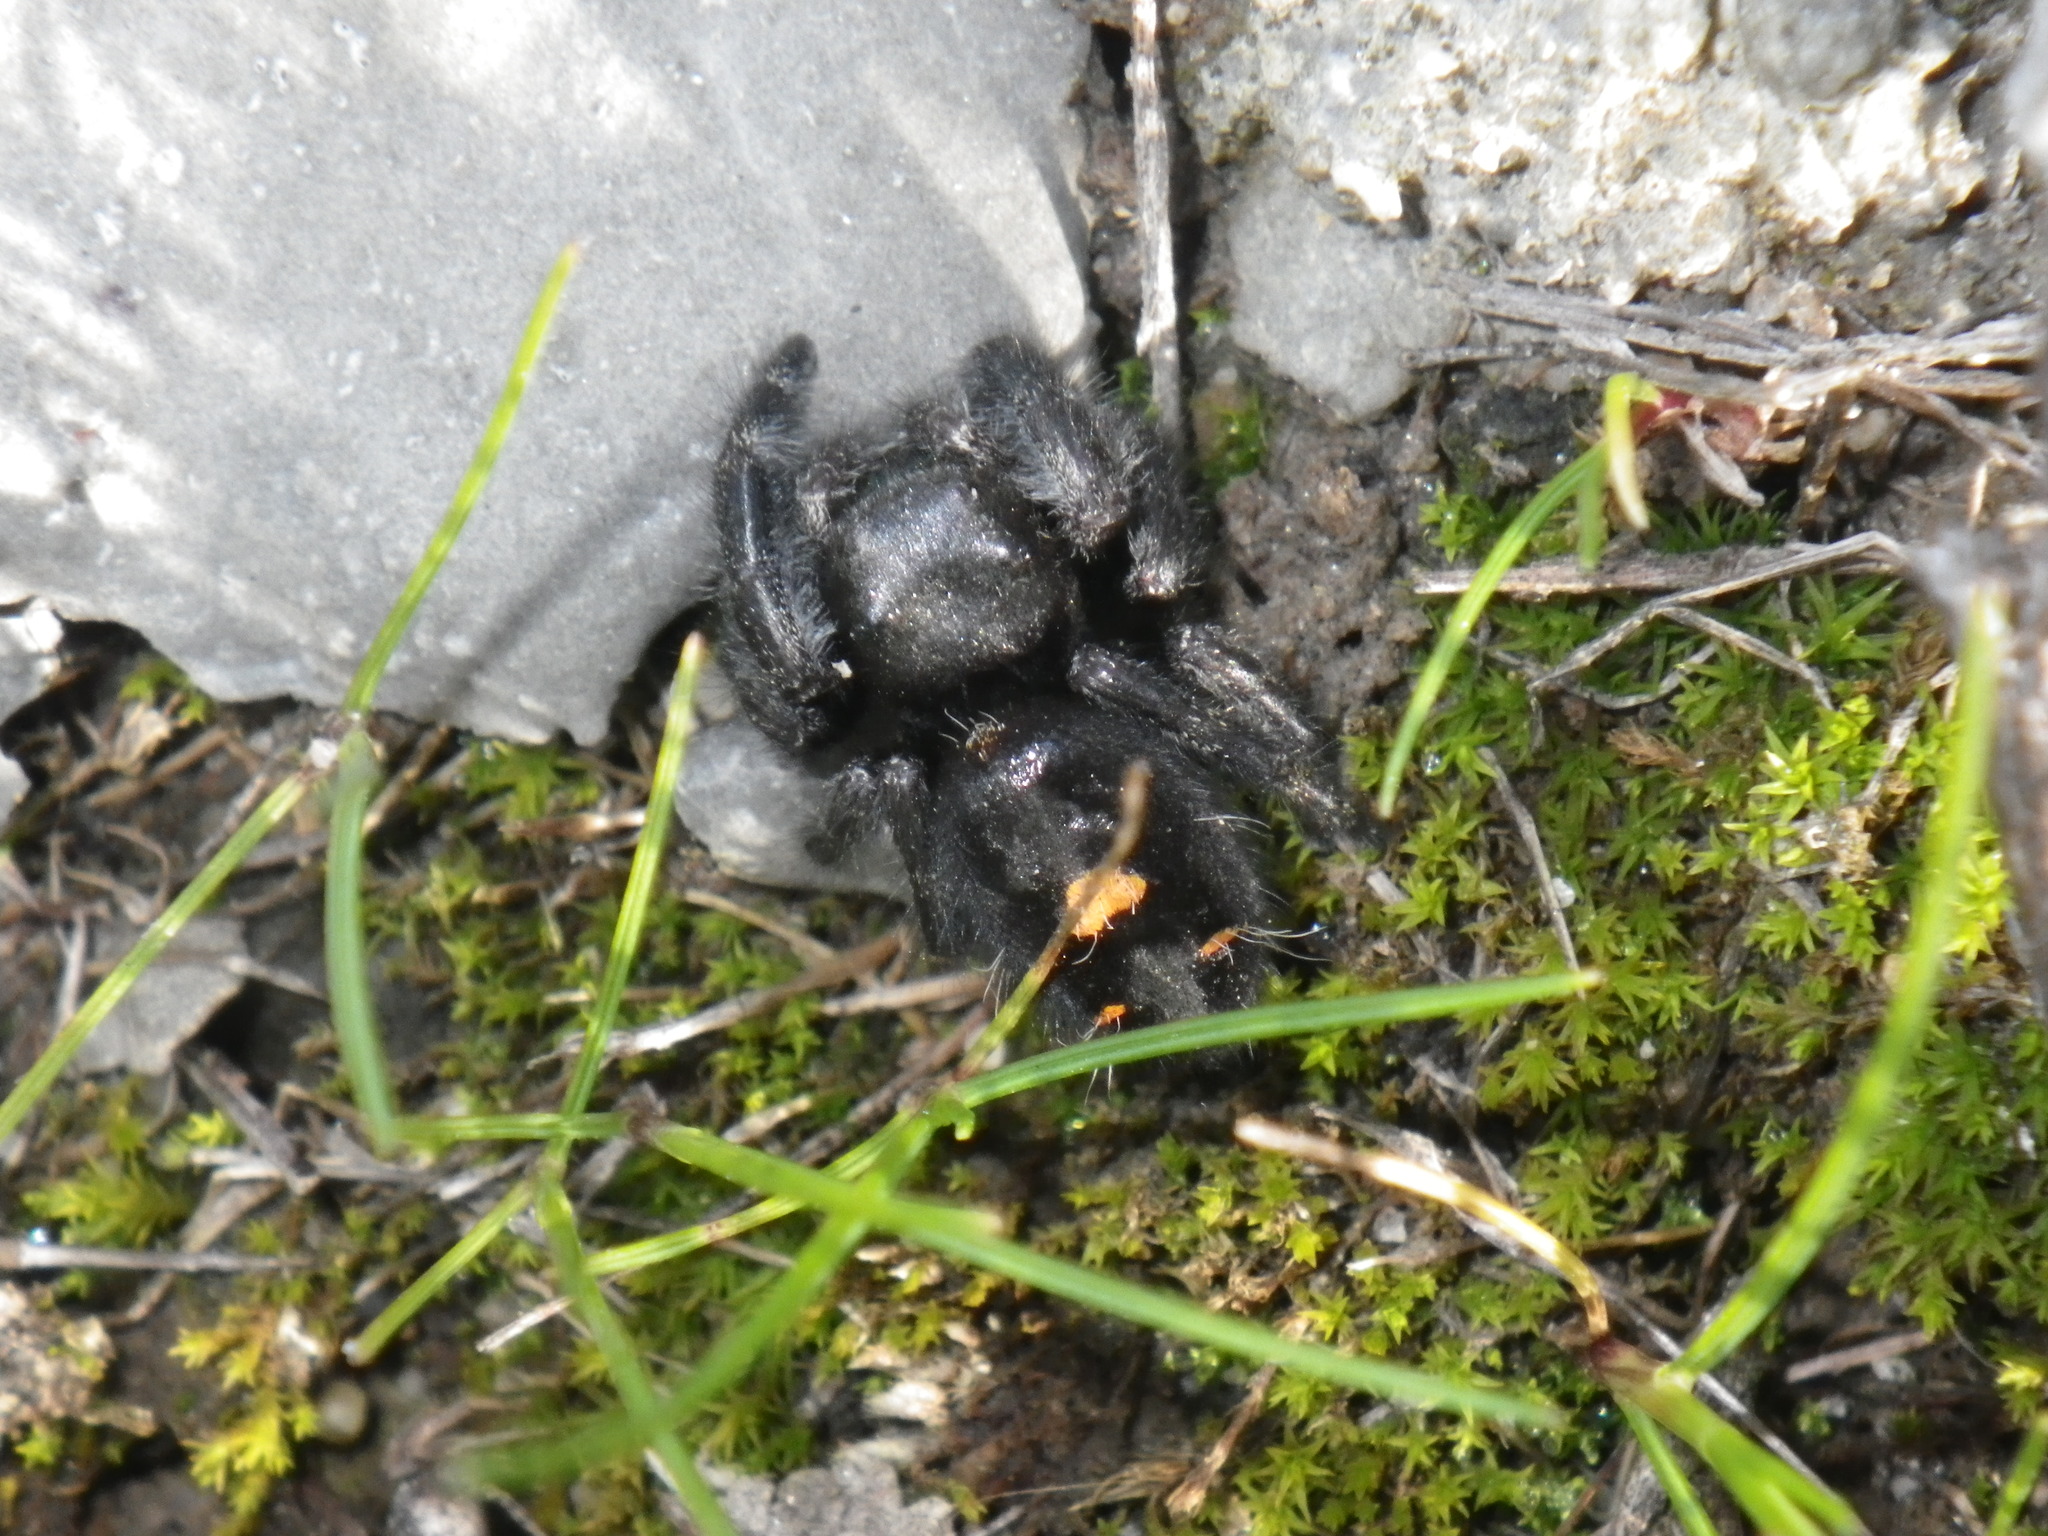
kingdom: Animalia
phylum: Arthropoda
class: Arachnida
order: Araneae
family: Salticidae
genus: Phidippus
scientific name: Phidippus audax
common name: Bold jumper
